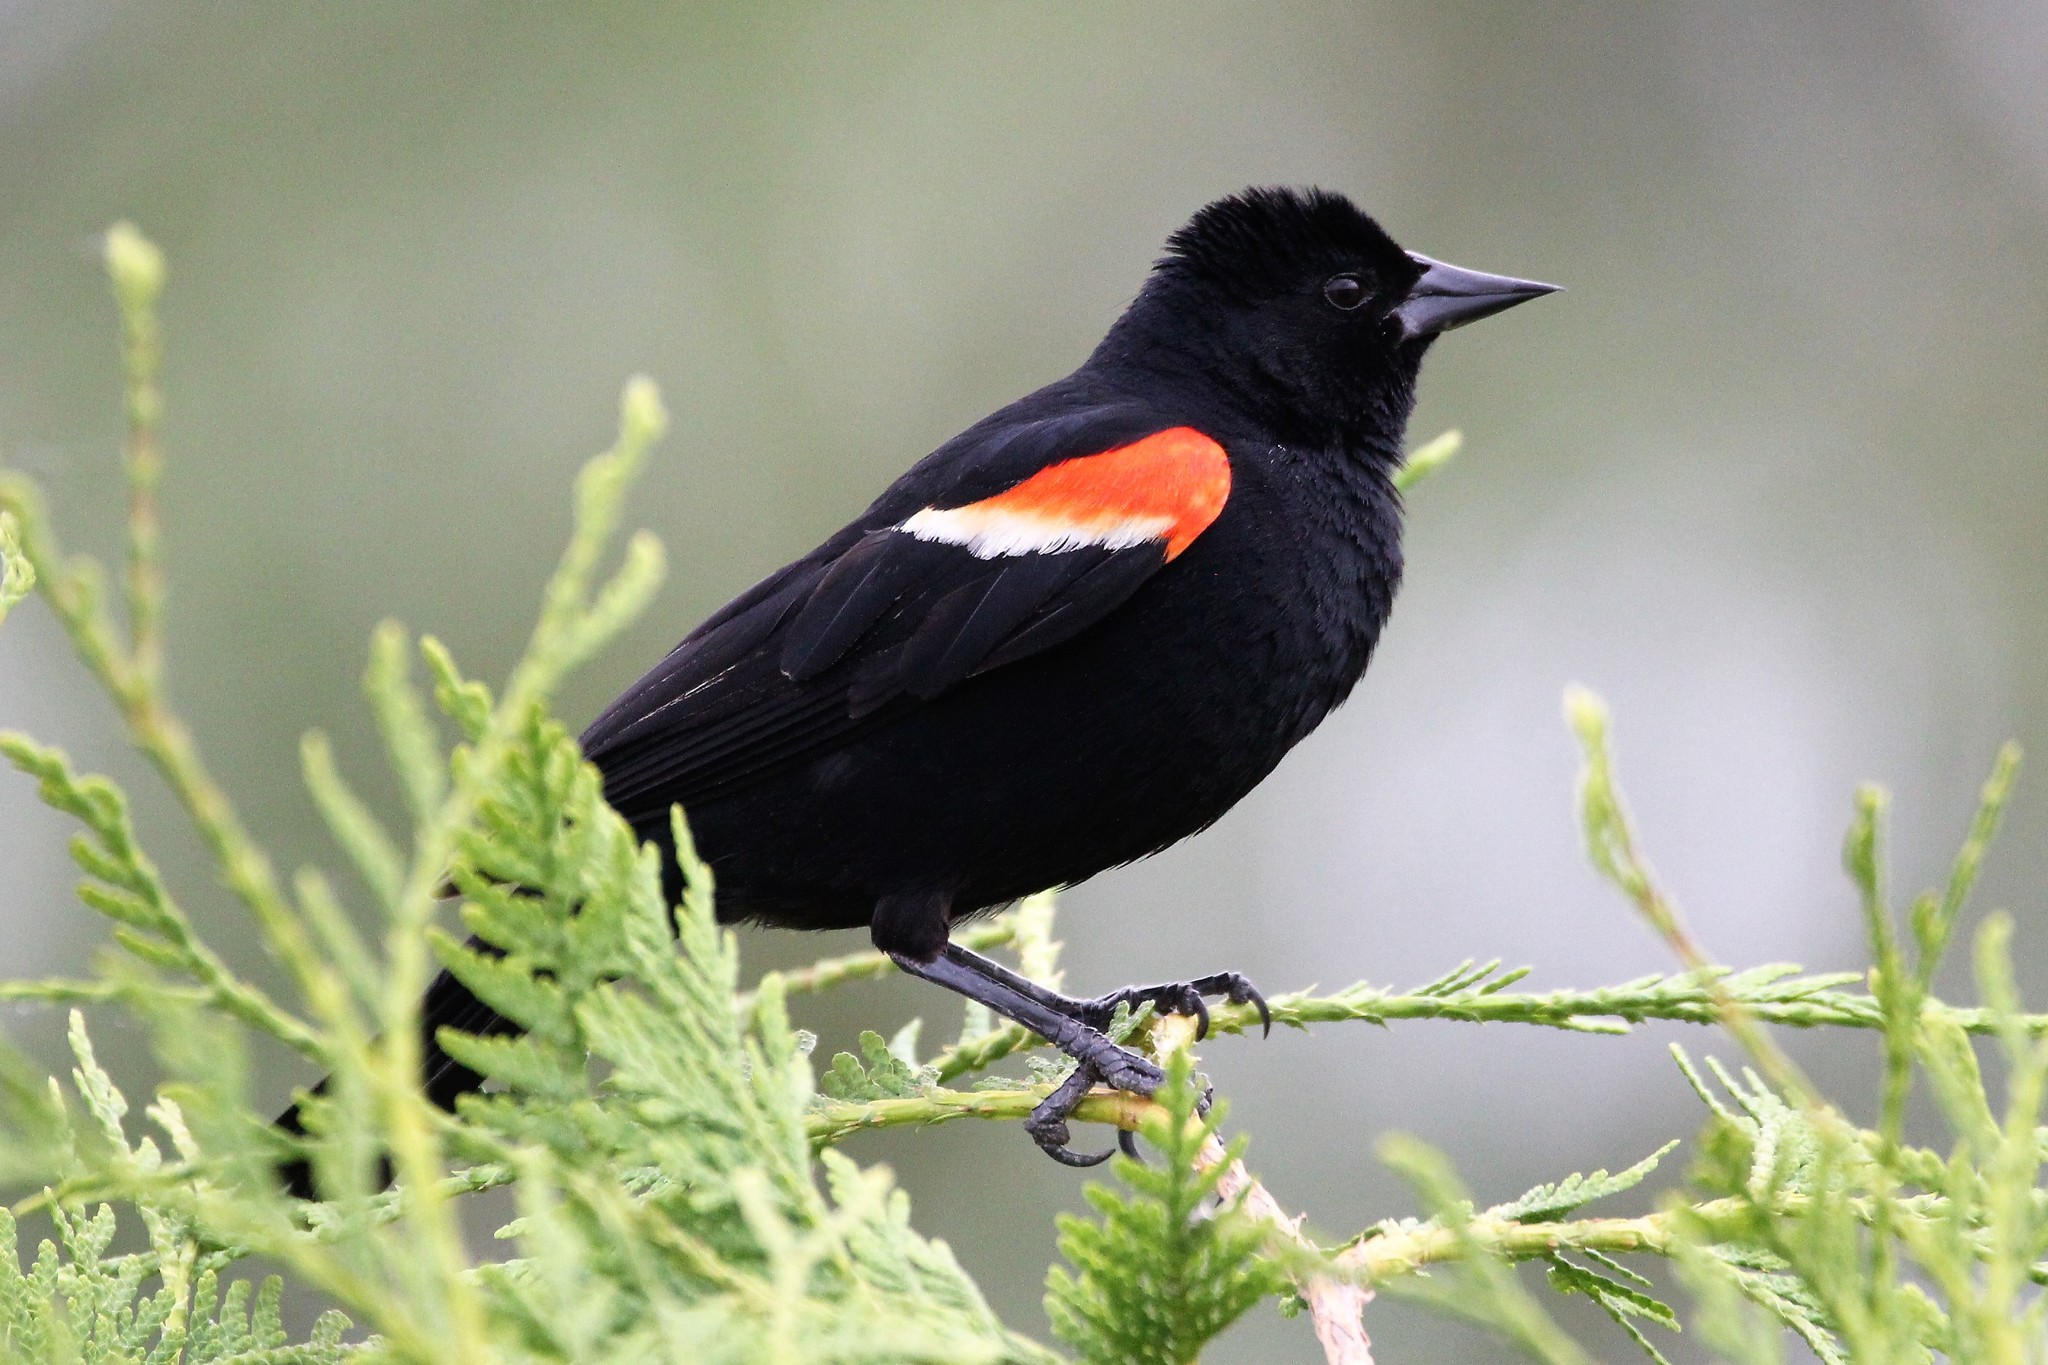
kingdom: Animalia
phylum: Chordata
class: Aves
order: Passeriformes
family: Icteridae
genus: Agelaius
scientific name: Agelaius phoeniceus
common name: Red-winged blackbird
